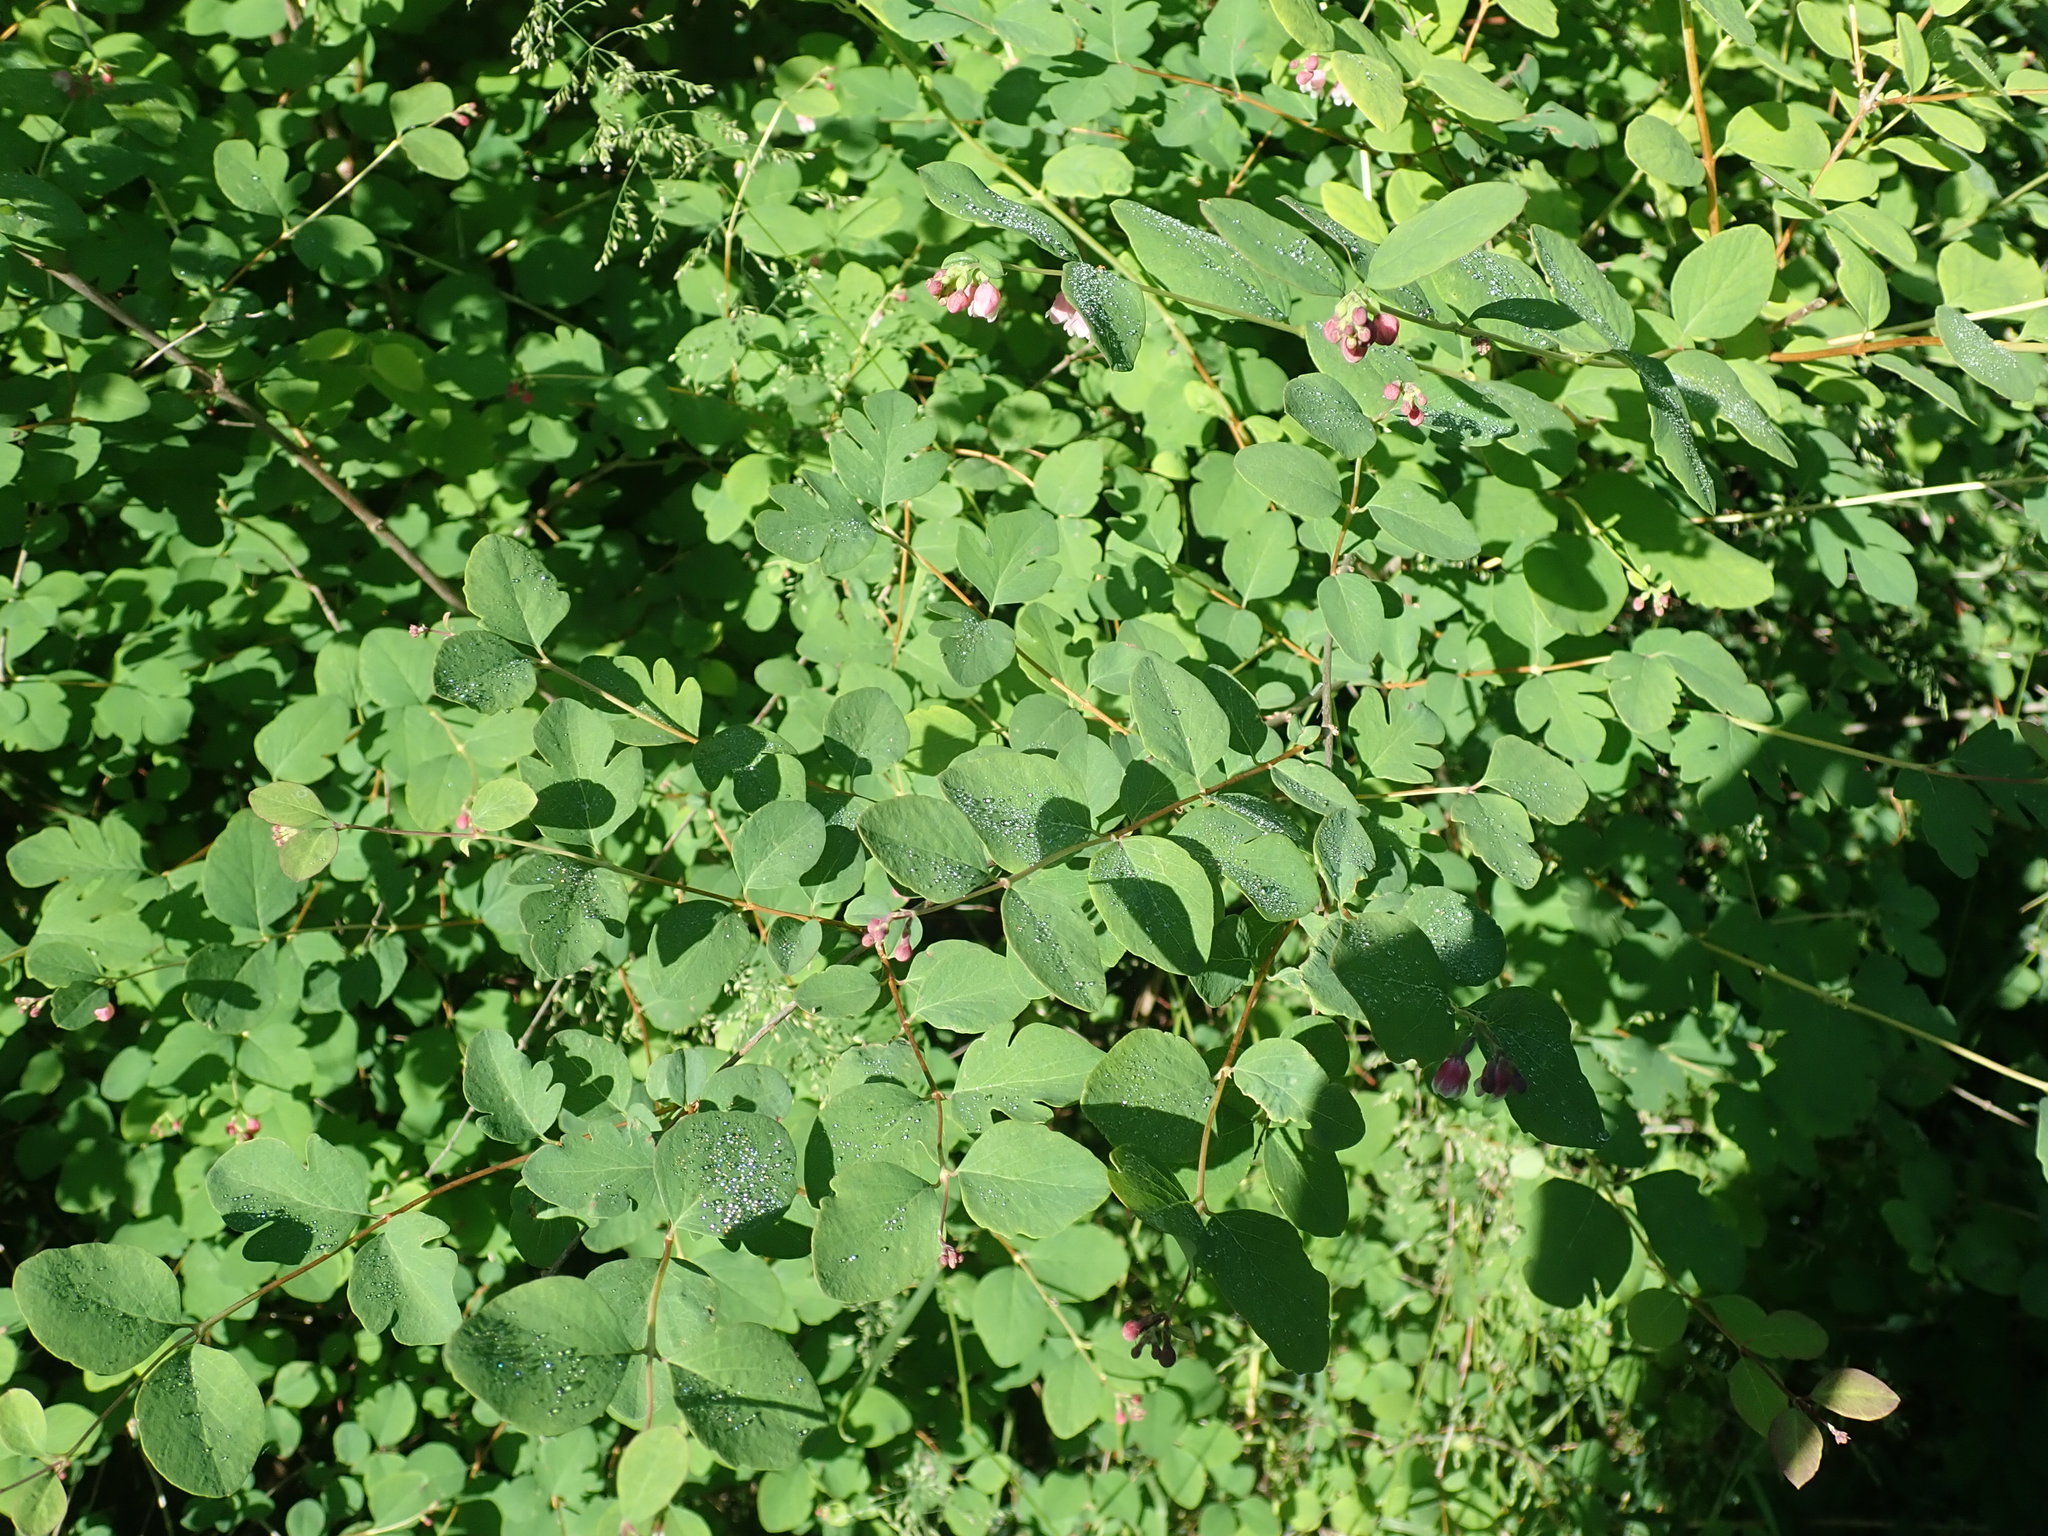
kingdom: Plantae
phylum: Tracheophyta
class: Magnoliopsida
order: Dipsacales
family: Caprifoliaceae
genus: Symphoricarpos
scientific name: Symphoricarpos albus
